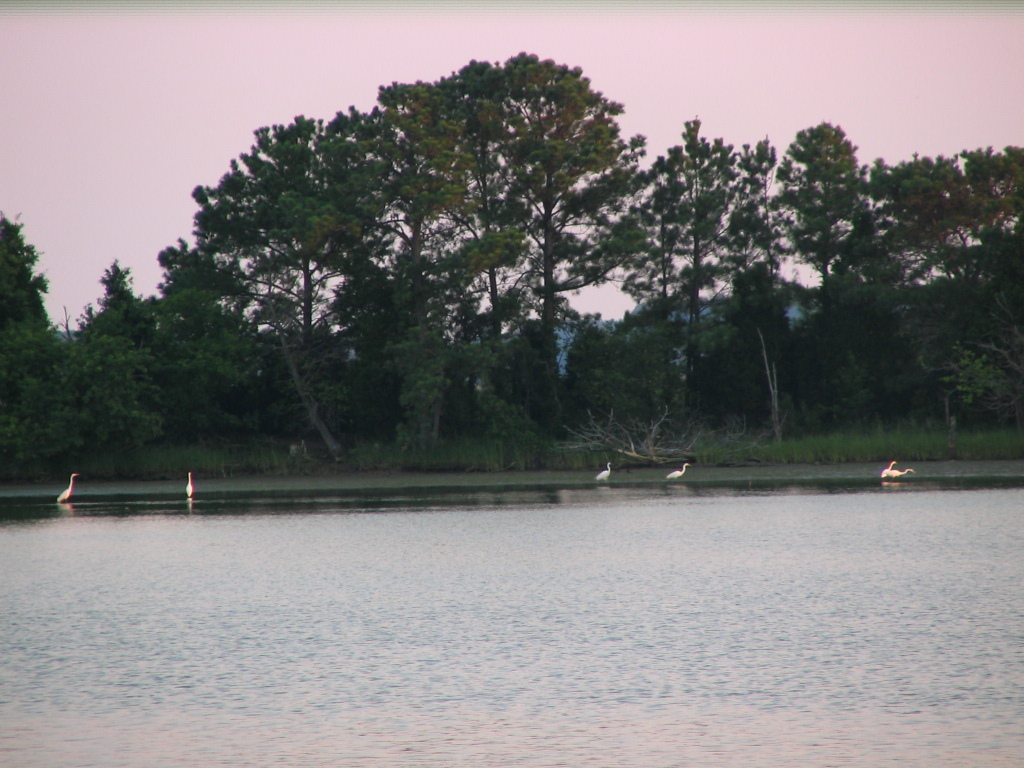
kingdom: Animalia
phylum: Chordata
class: Aves
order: Pelecaniformes
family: Ardeidae
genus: Ardea
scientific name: Ardea alba
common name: Great egret
